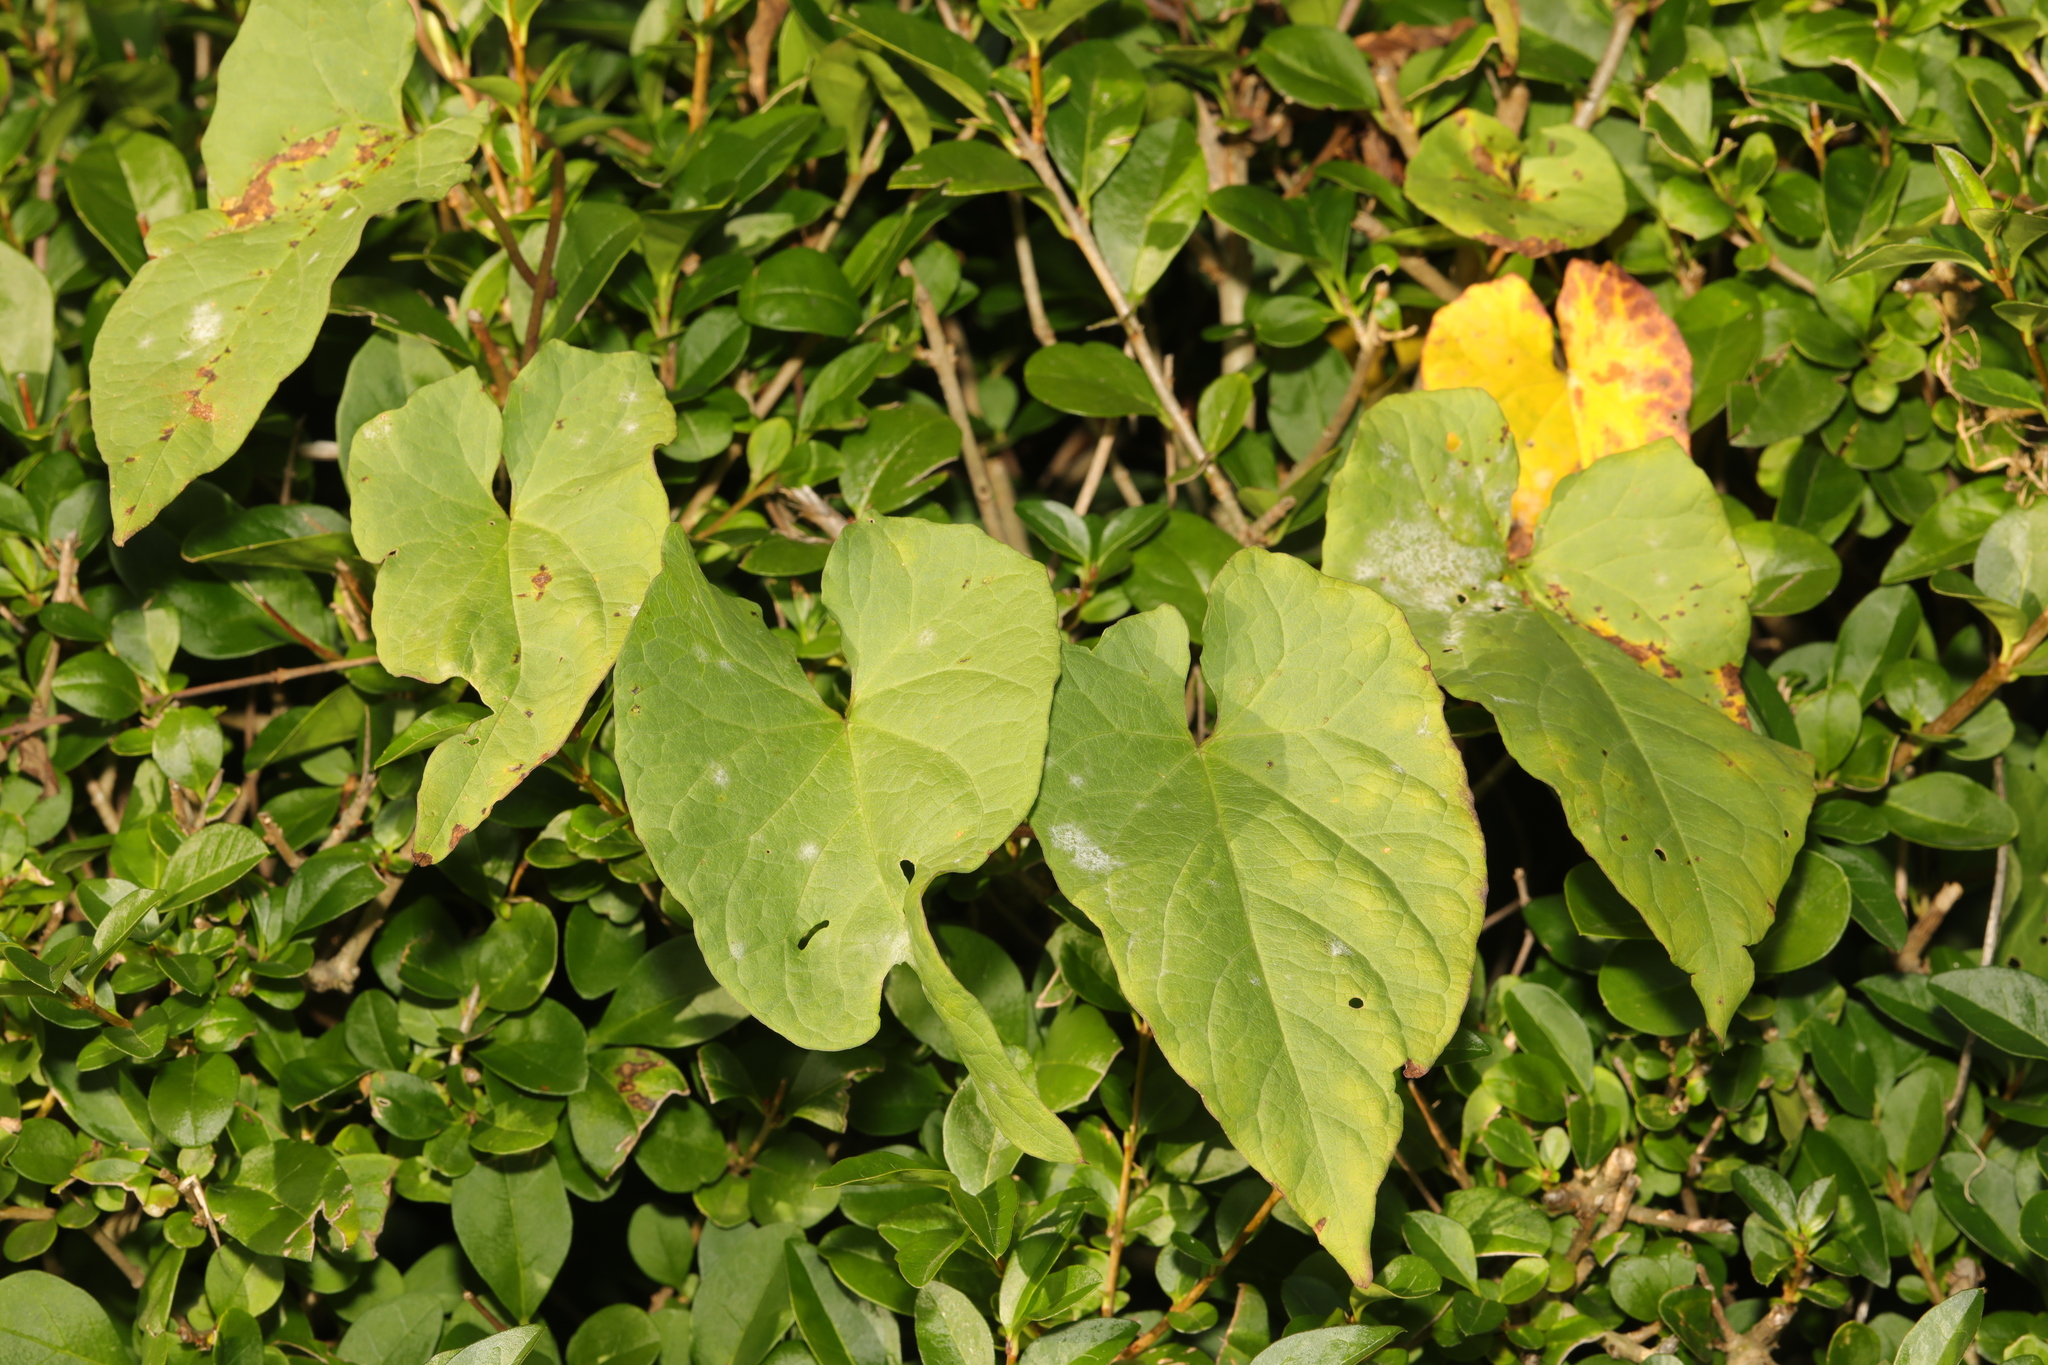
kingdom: Plantae
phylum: Tracheophyta
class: Magnoliopsida
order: Solanales
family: Convolvulaceae
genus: Calystegia
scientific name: Calystegia
